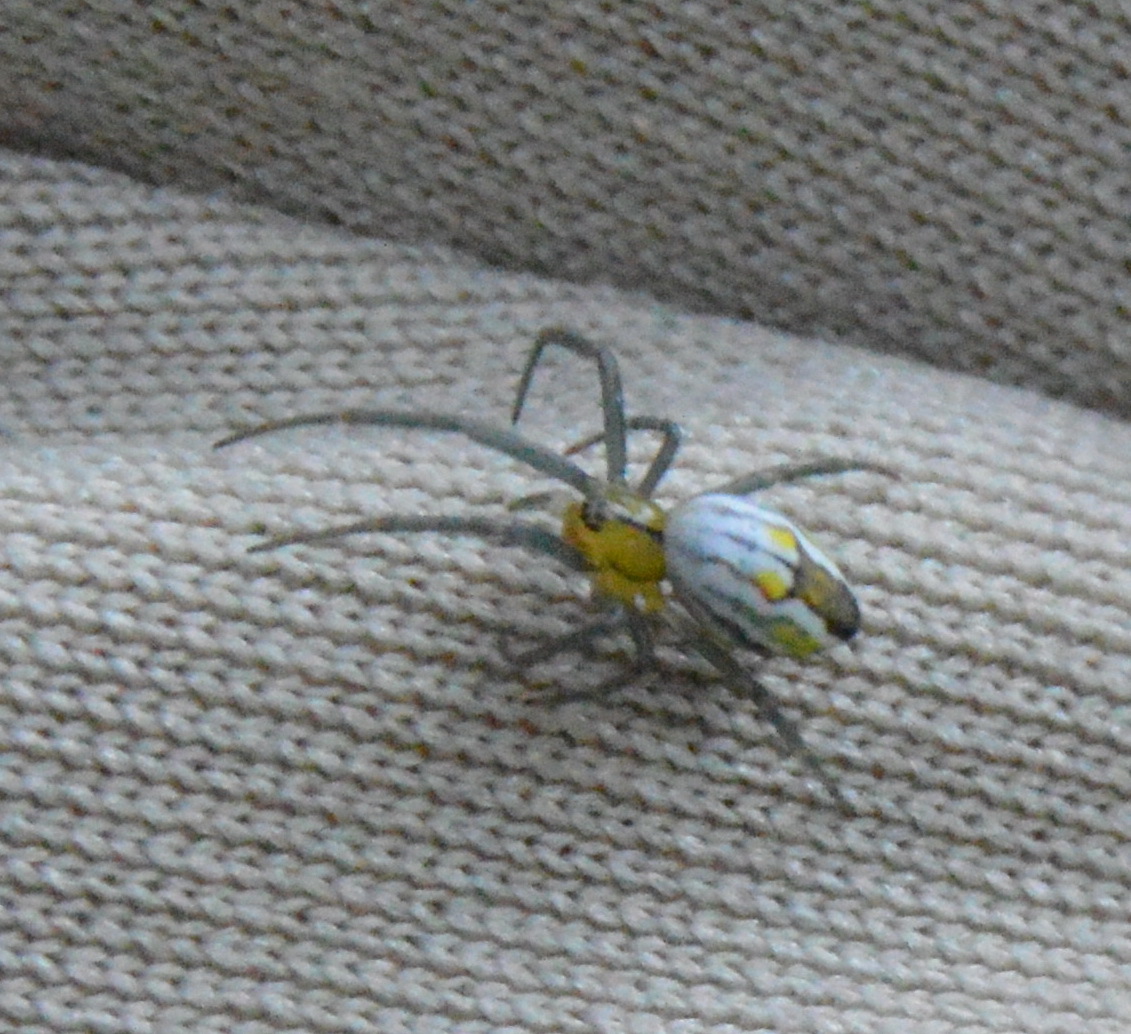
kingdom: Animalia
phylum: Arthropoda
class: Arachnida
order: Araneae
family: Araneidae
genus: Mecynogea
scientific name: Mecynogea lemniscata
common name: Orb weavers
